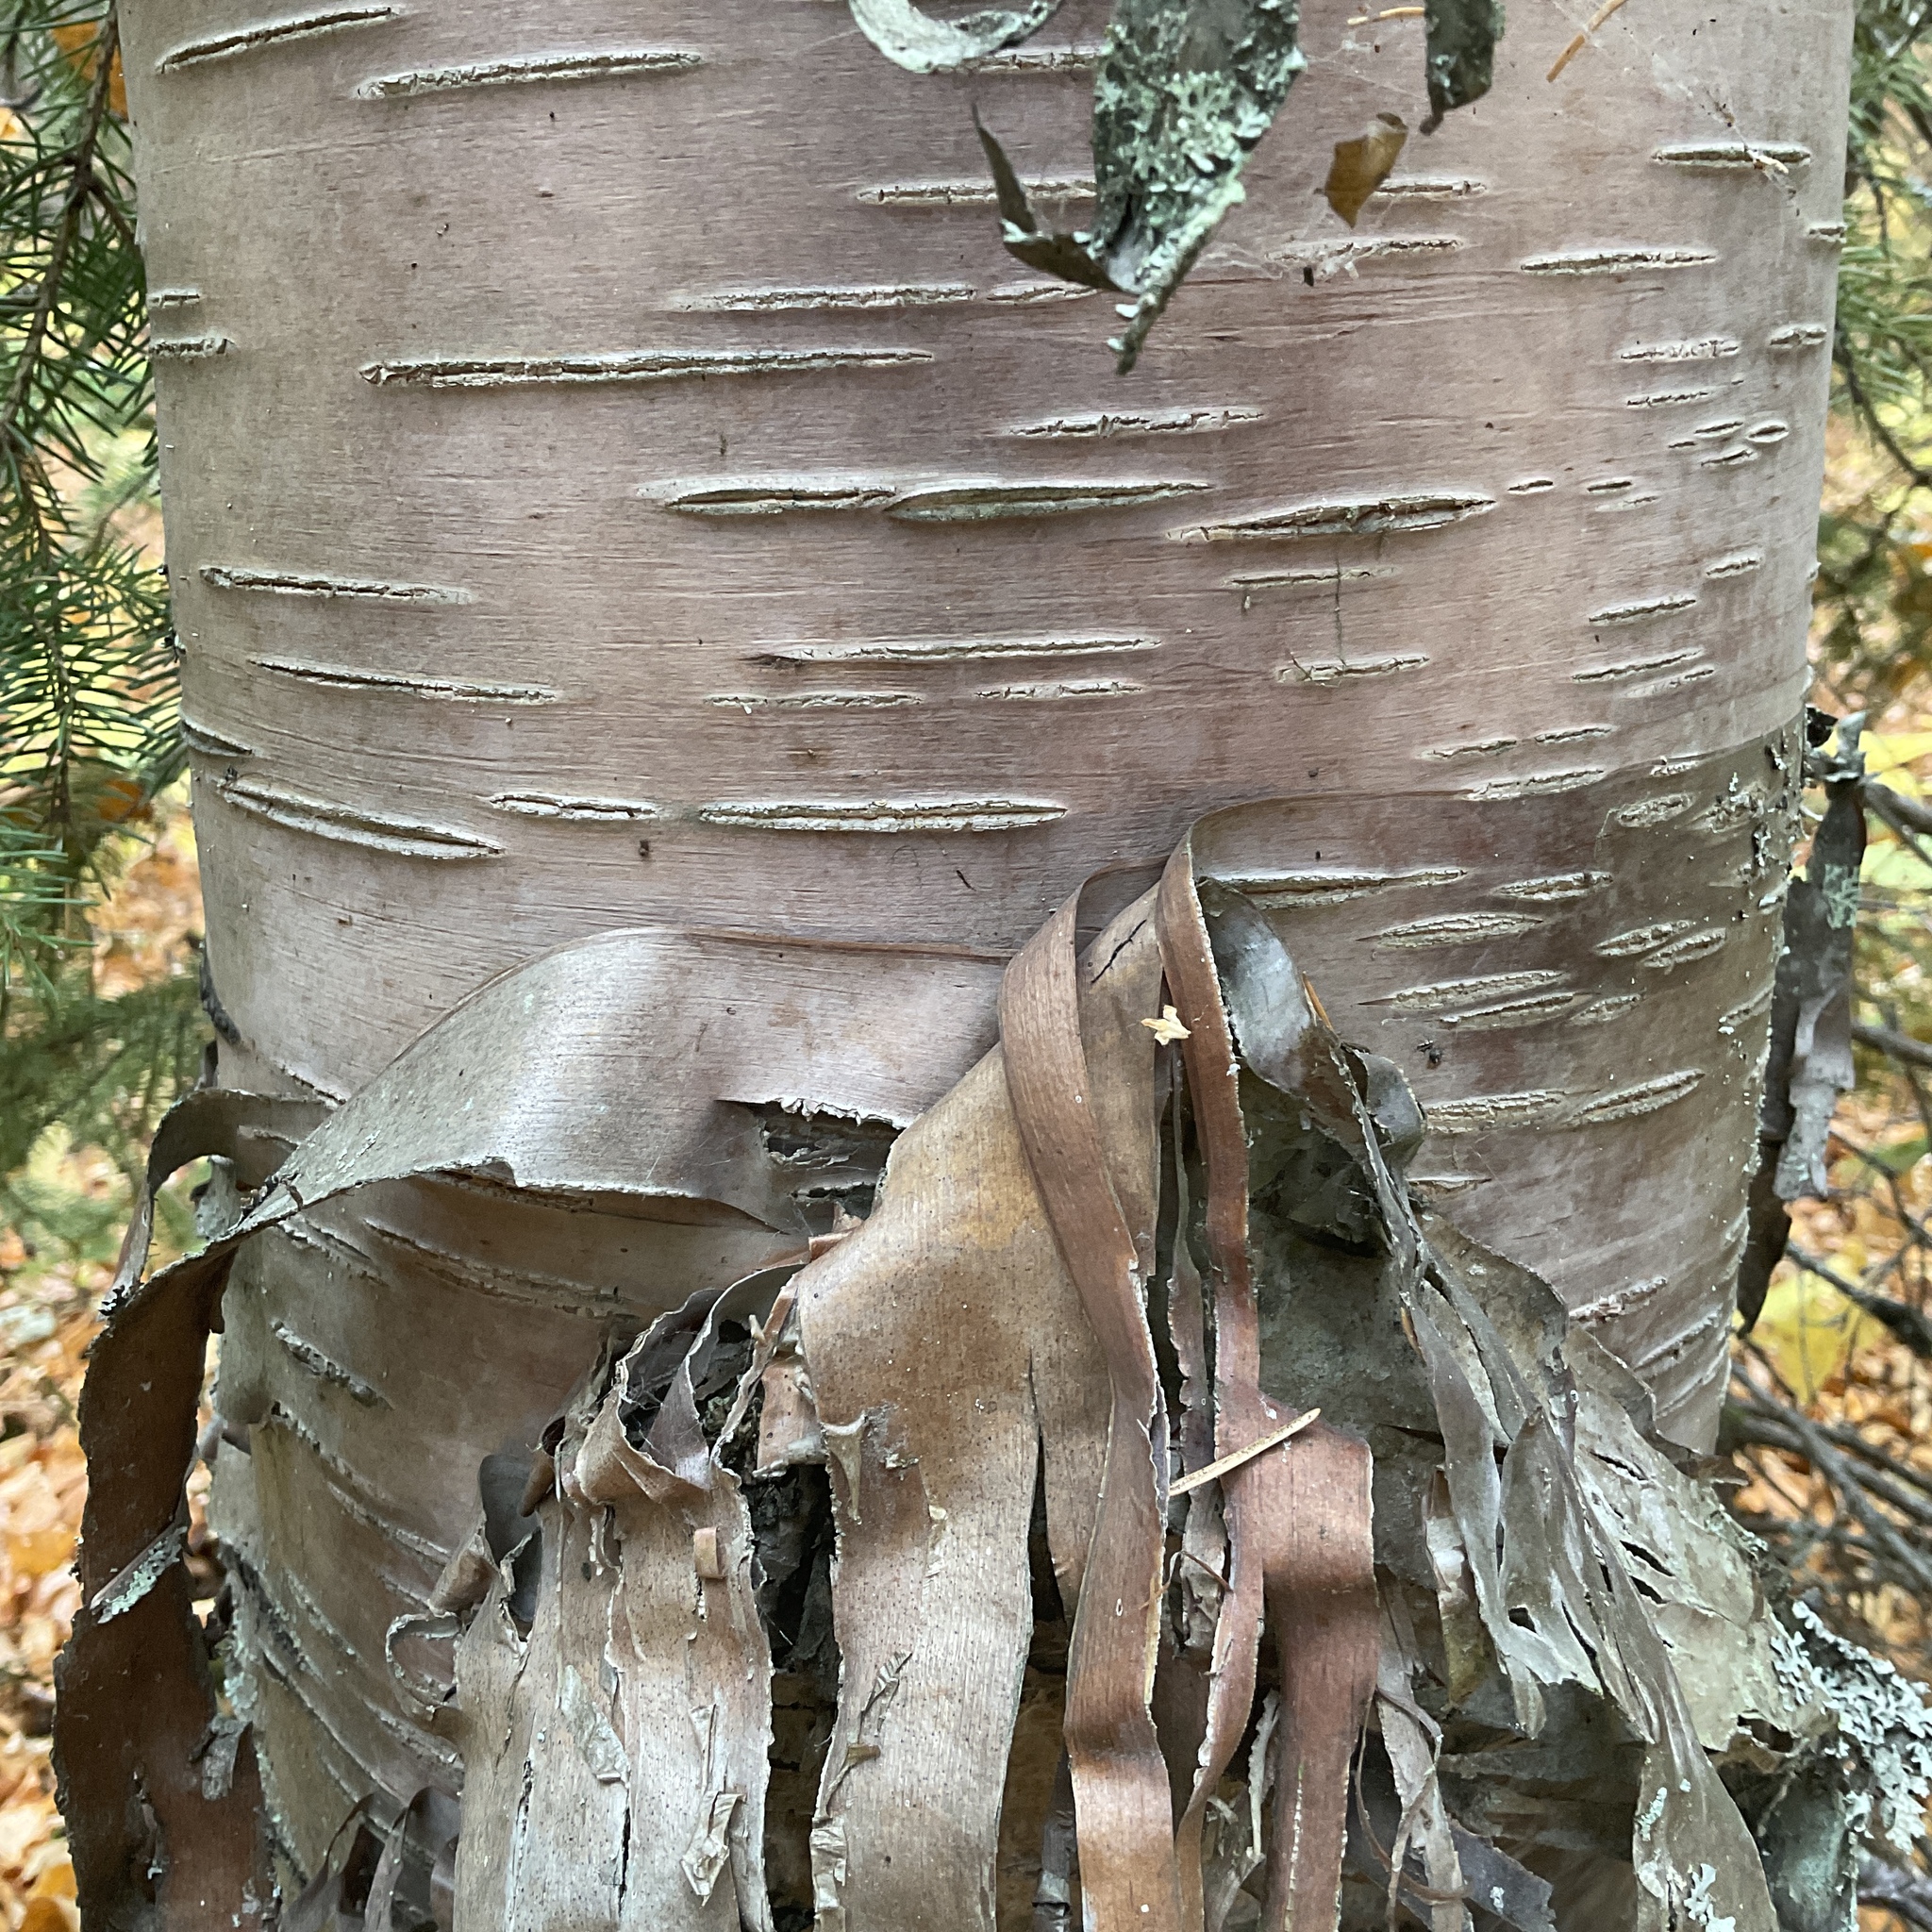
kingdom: Plantae
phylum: Tracheophyta
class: Magnoliopsida
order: Fagales
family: Betulaceae
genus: Betula
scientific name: Betula papyrifera
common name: Paper birch
